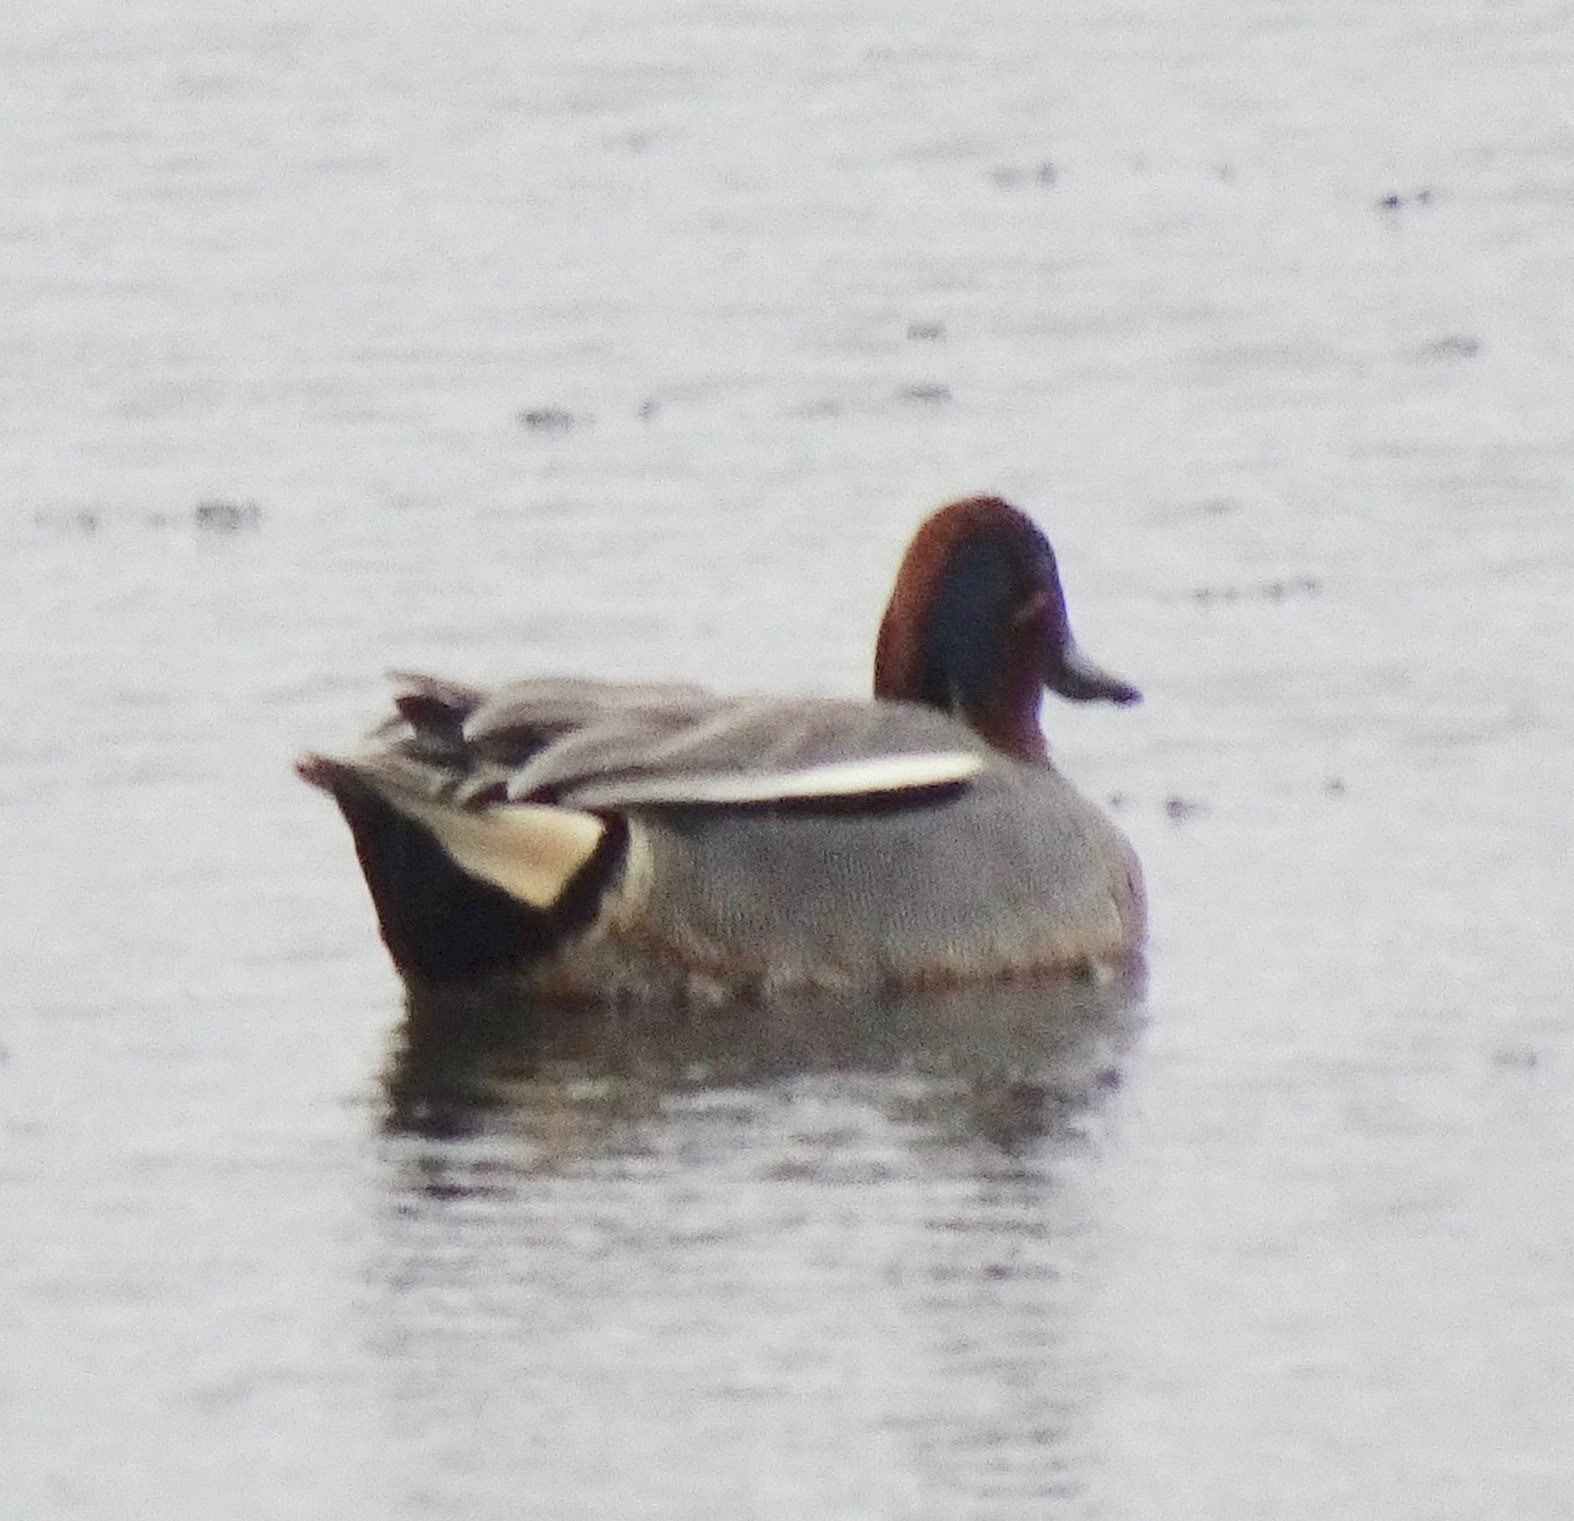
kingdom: Animalia
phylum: Chordata
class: Aves
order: Anseriformes
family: Anatidae
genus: Anas
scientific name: Anas crecca
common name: Eurasian teal
